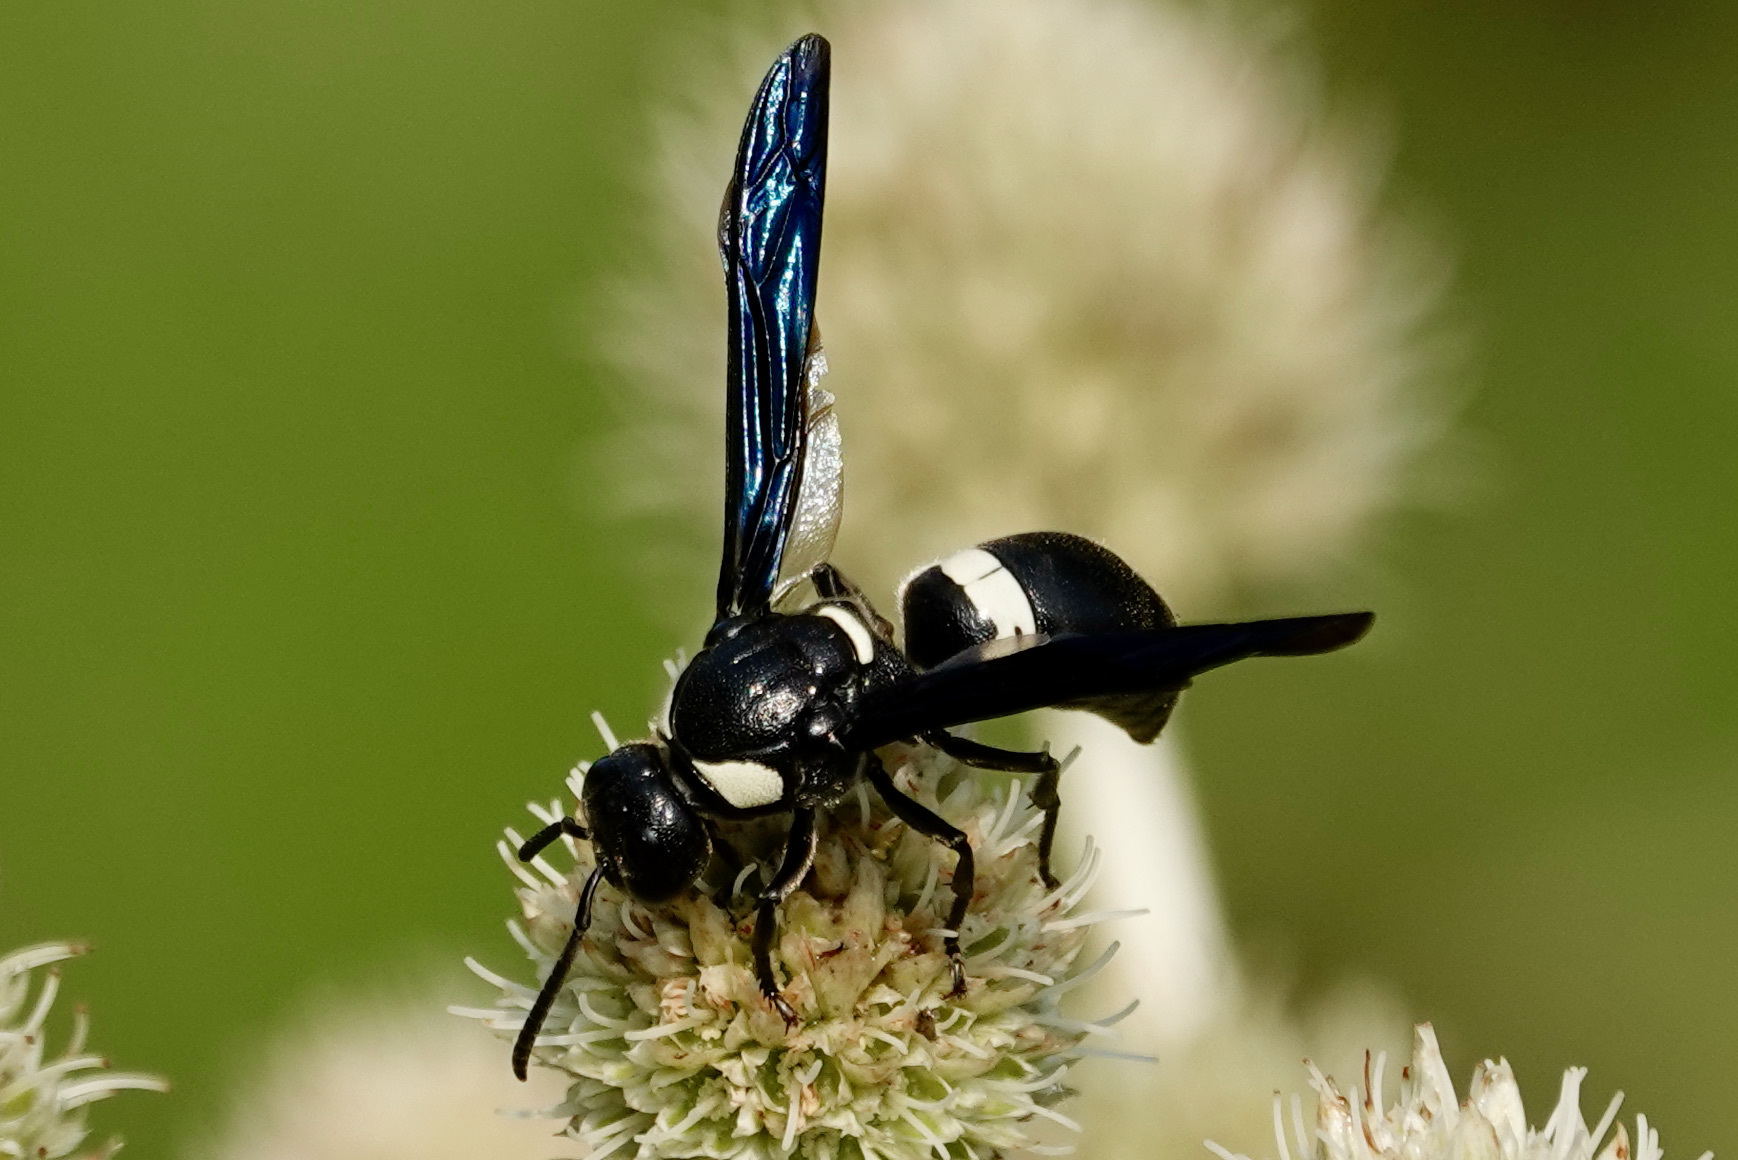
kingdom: Animalia
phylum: Arthropoda
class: Insecta
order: Hymenoptera
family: Eumenidae
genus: Monobia
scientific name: Monobia quadridens
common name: Four-toothed mason wasp
